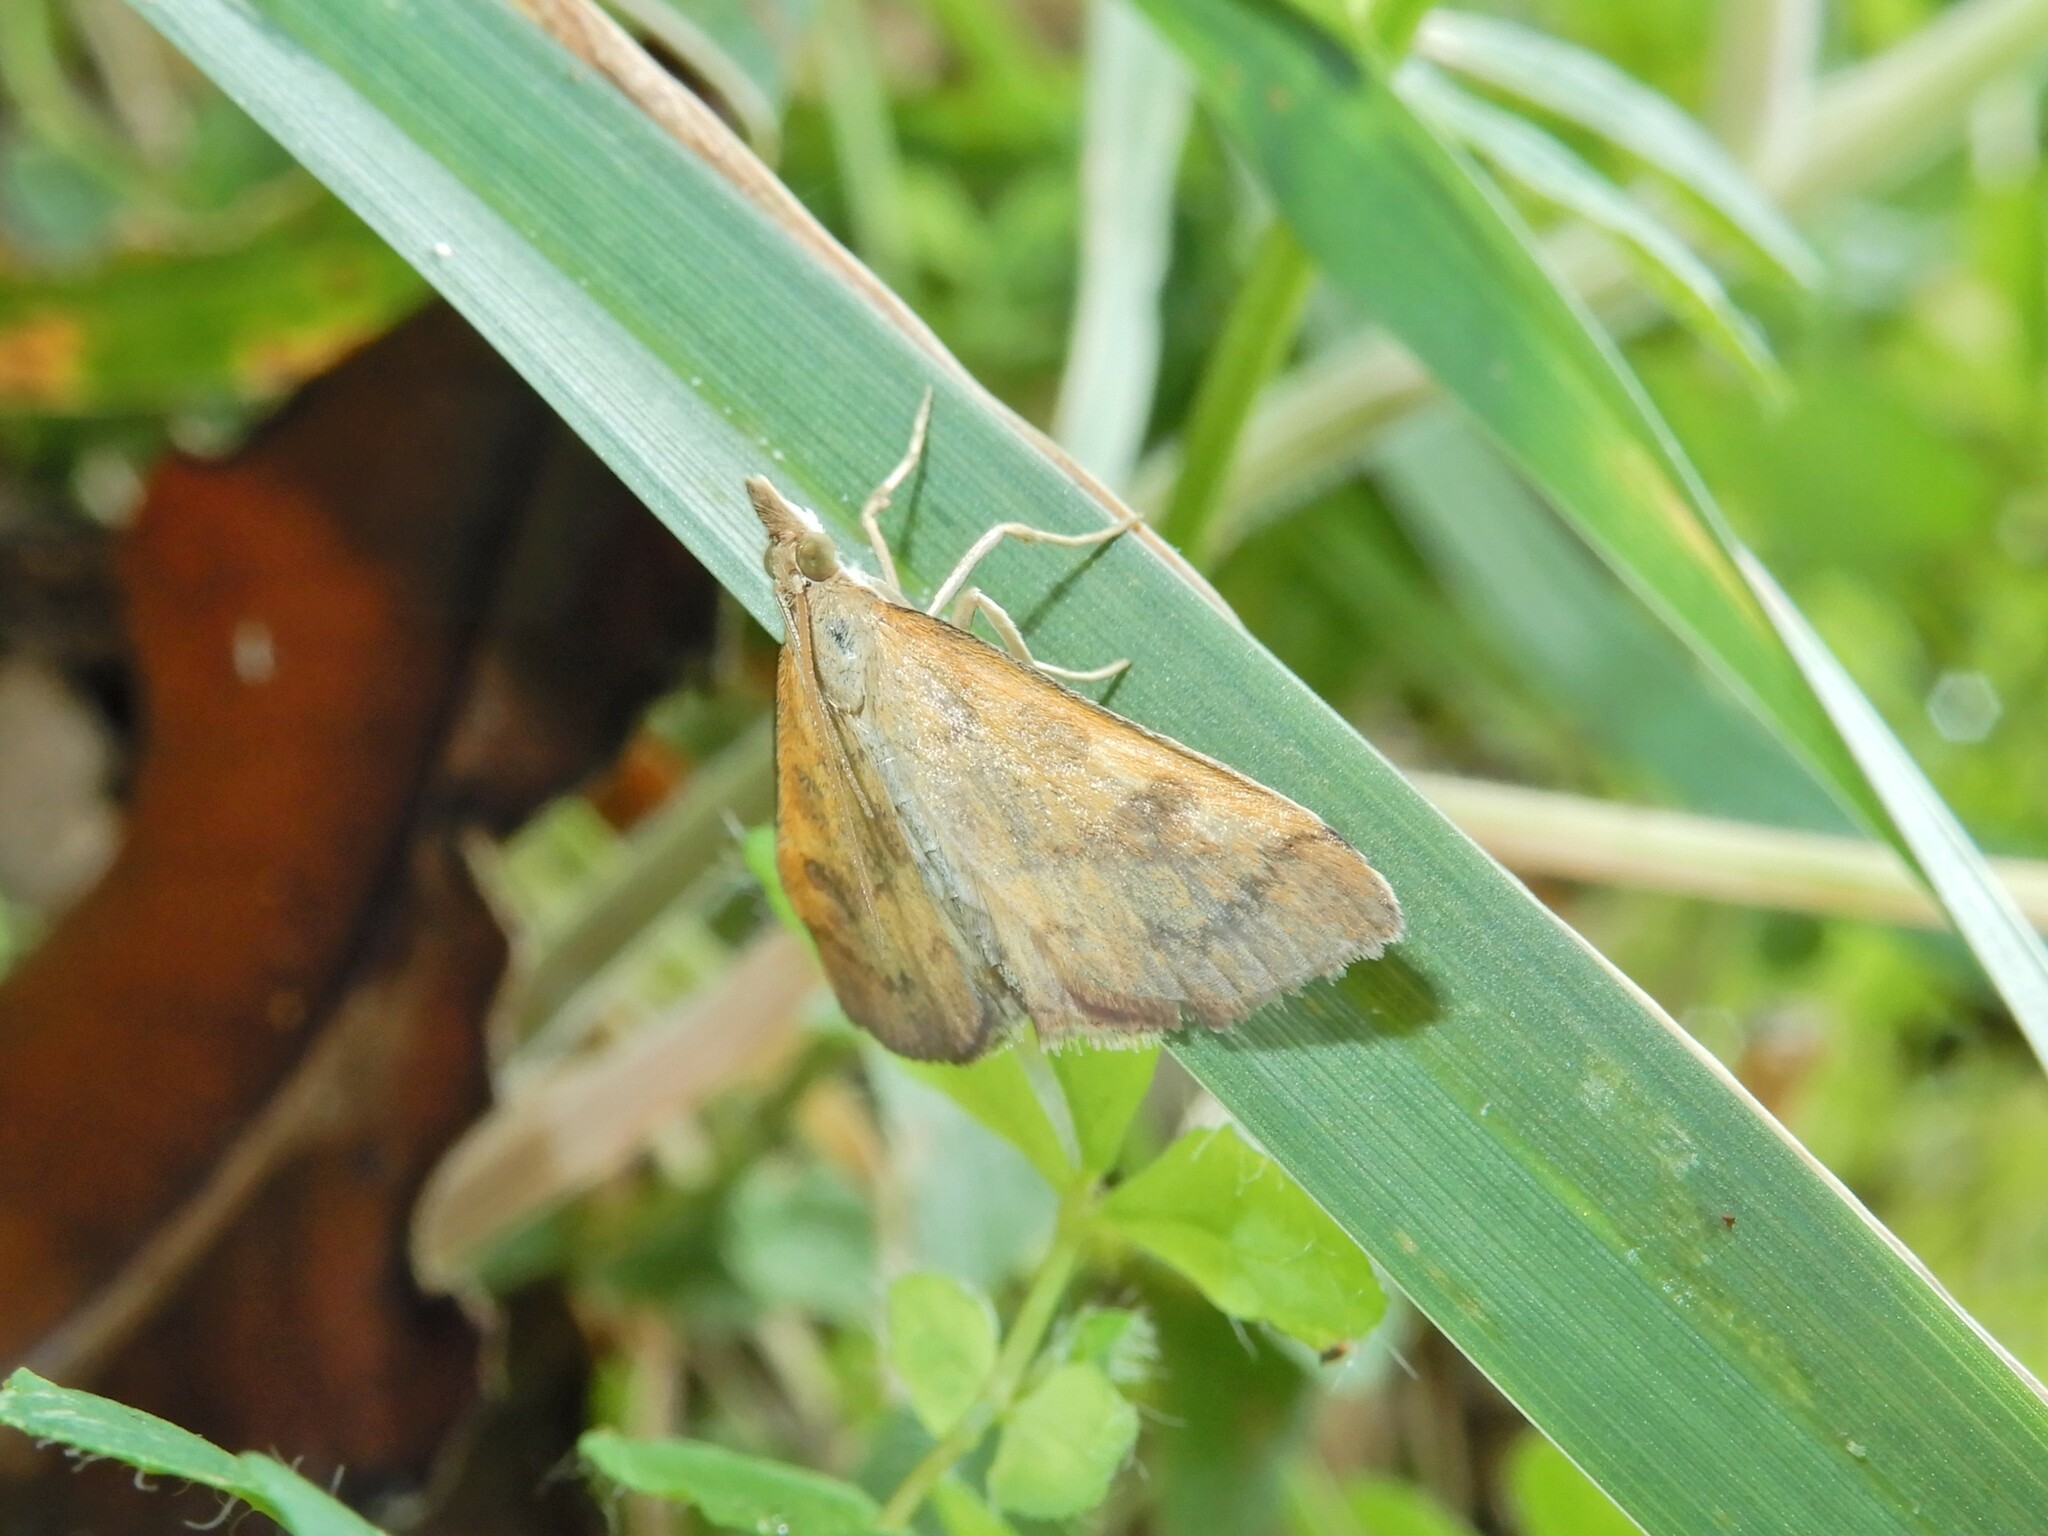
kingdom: Animalia
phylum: Arthropoda
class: Insecta
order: Lepidoptera
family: Crambidae
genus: Udea
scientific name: Udea Mnesictena flavidalis
